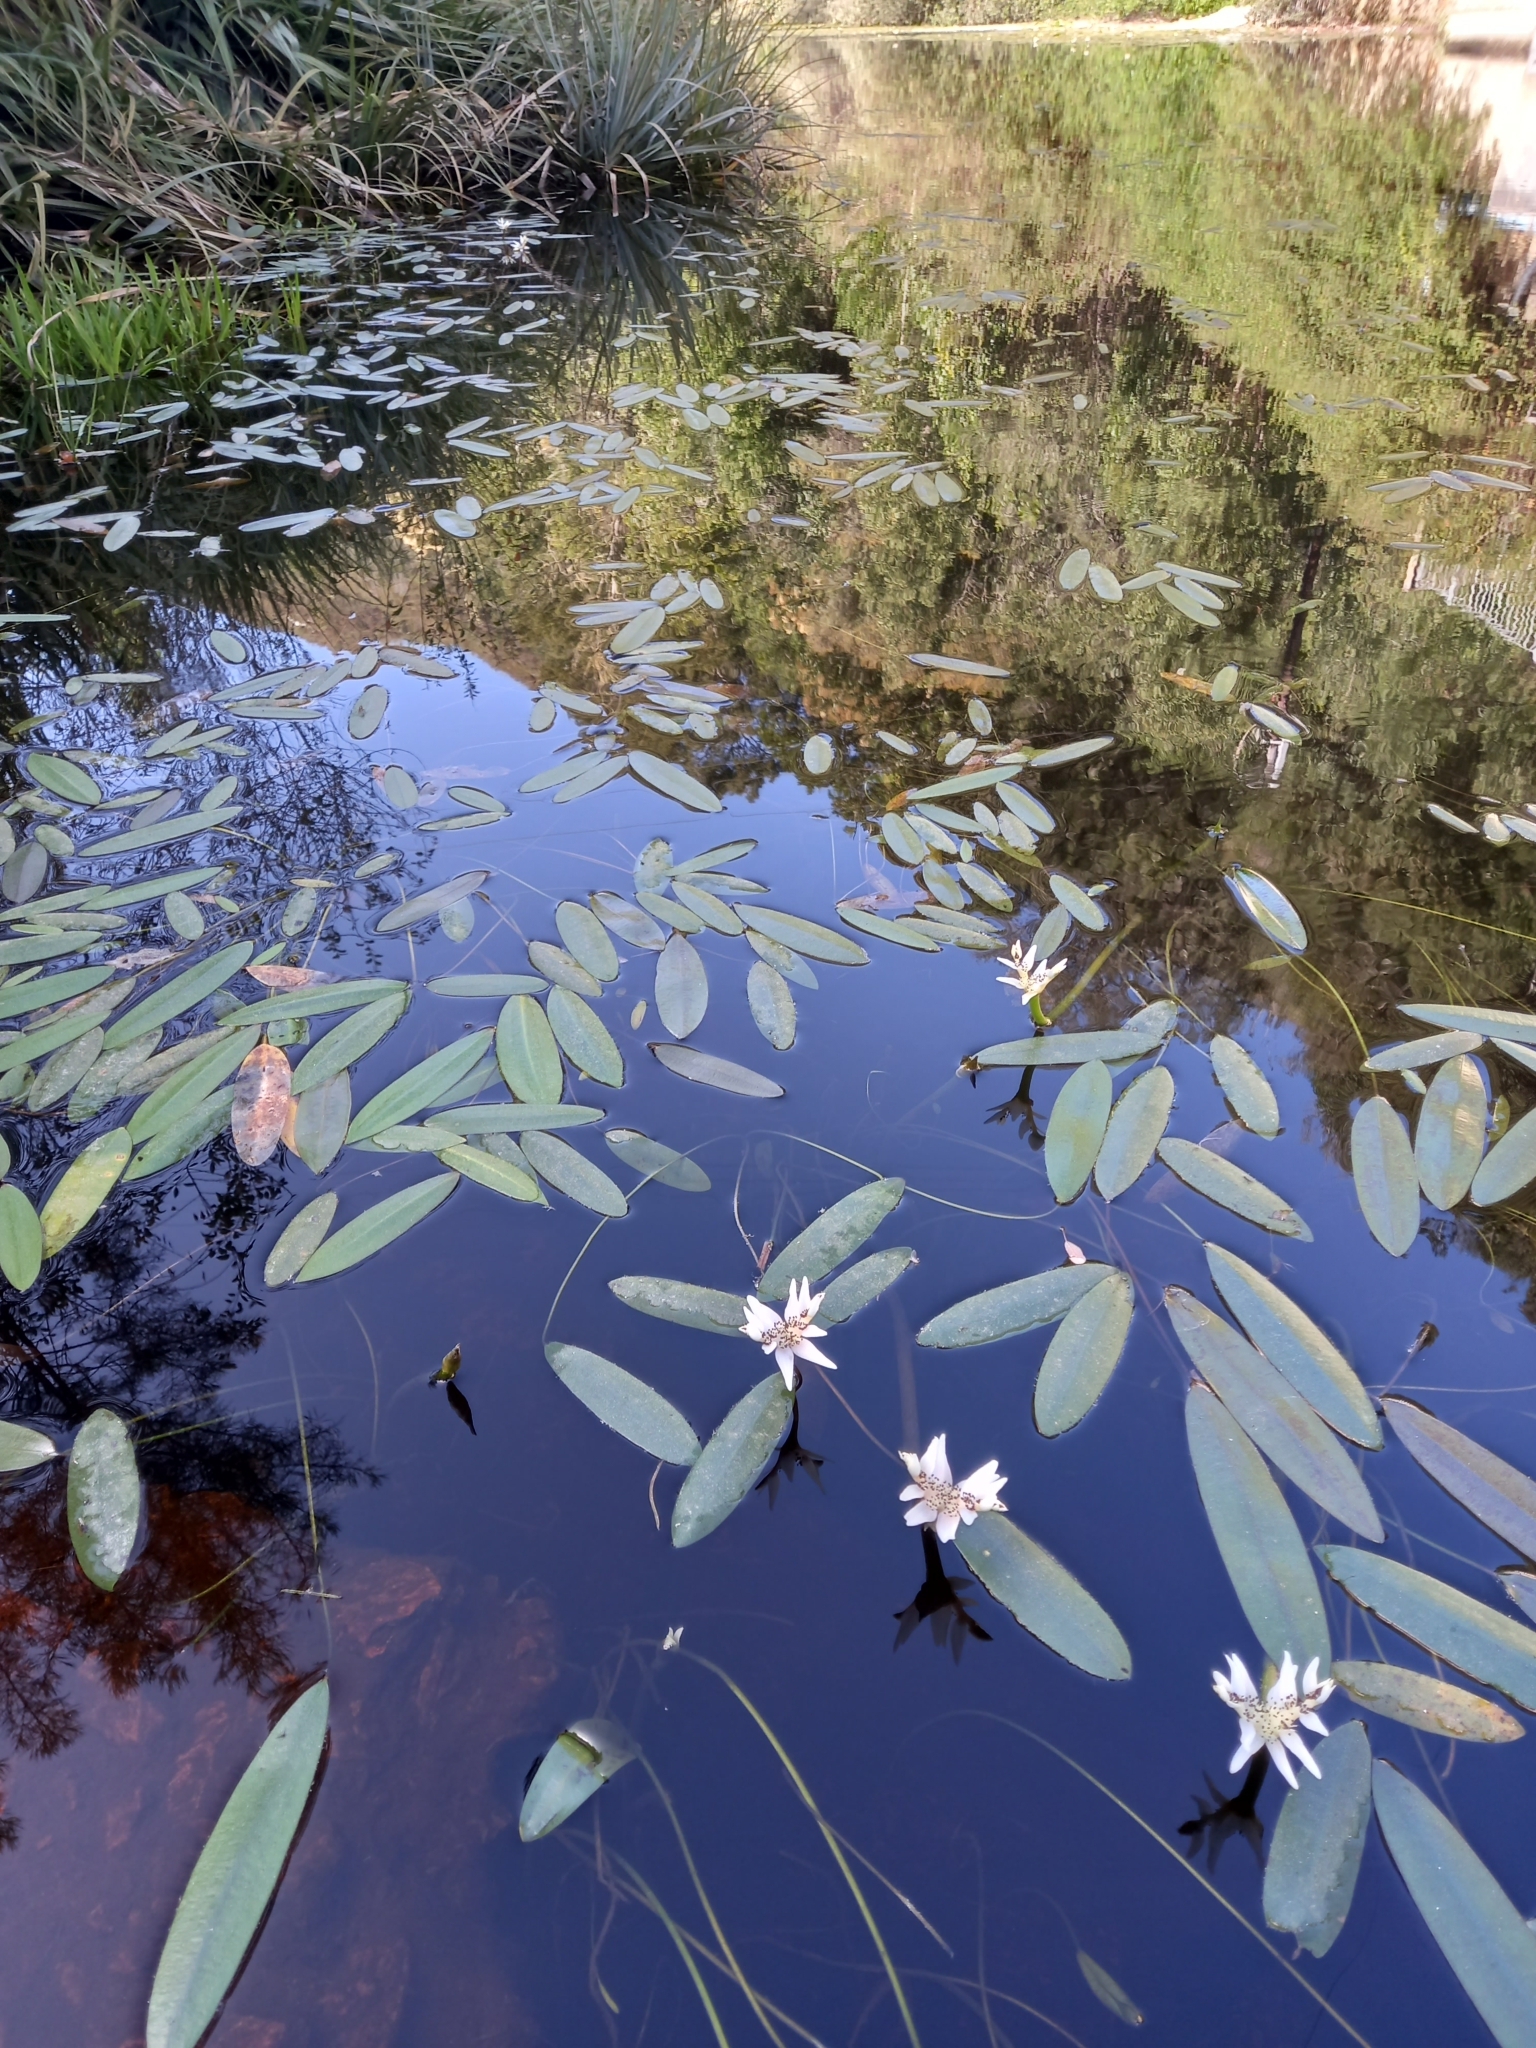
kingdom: Plantae
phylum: Tracheophyta
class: Liliopsida
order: Alismatales
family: Aponogetonaceae
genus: Aponogeton
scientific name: Aponogeton distachyos
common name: Cape-pondweed
